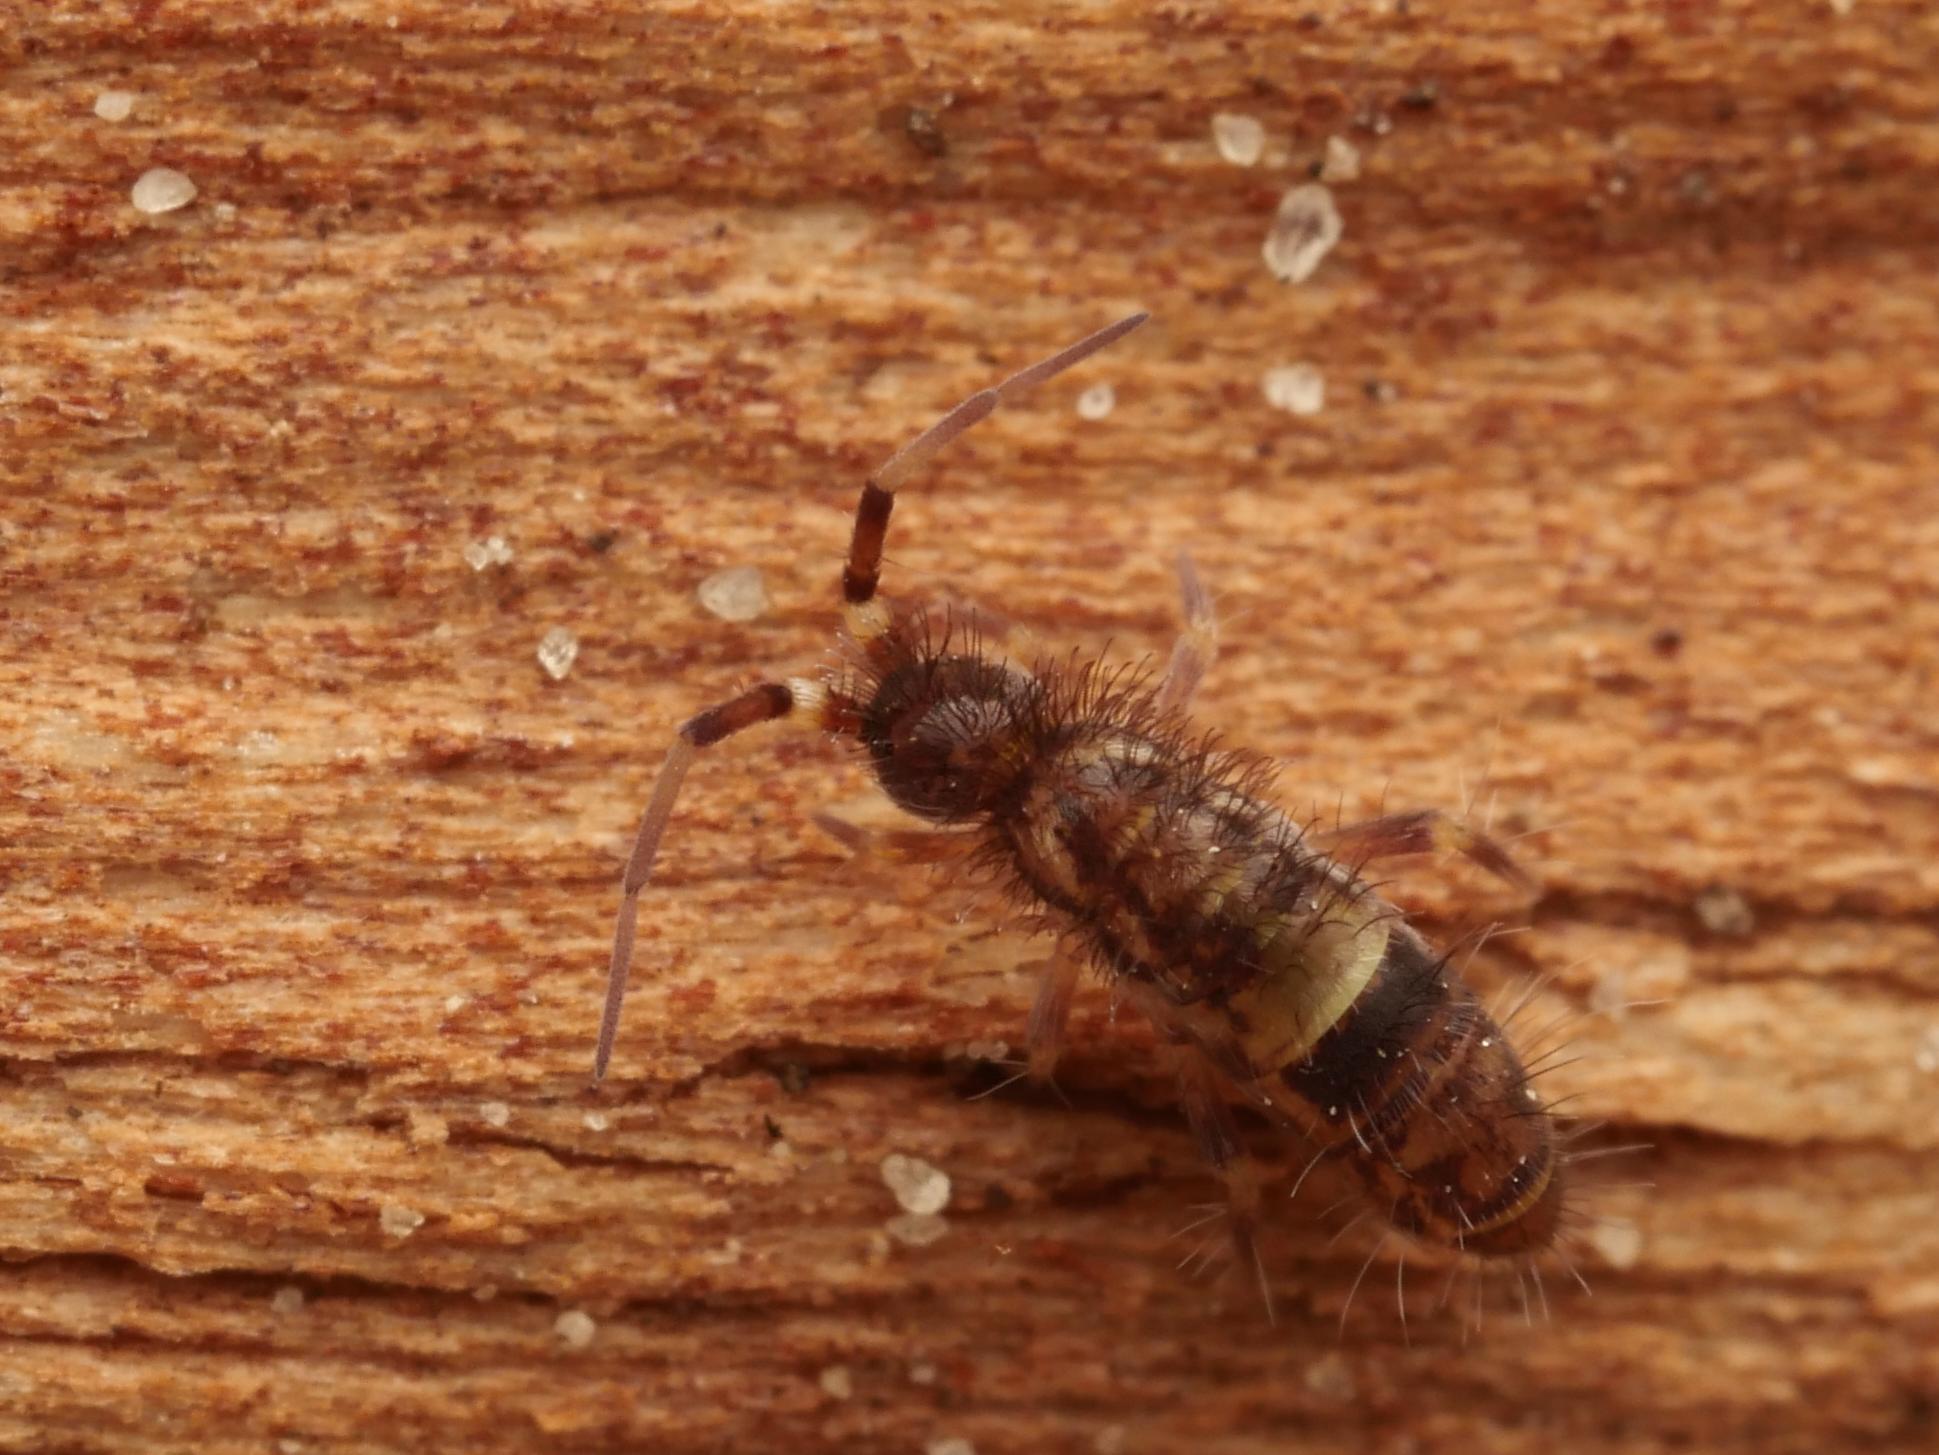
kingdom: Animalia
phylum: Arthropoda
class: Collembola
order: Entomobryomorpha
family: Orchesellidae
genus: Orchesella
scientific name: Orchesella cincta
